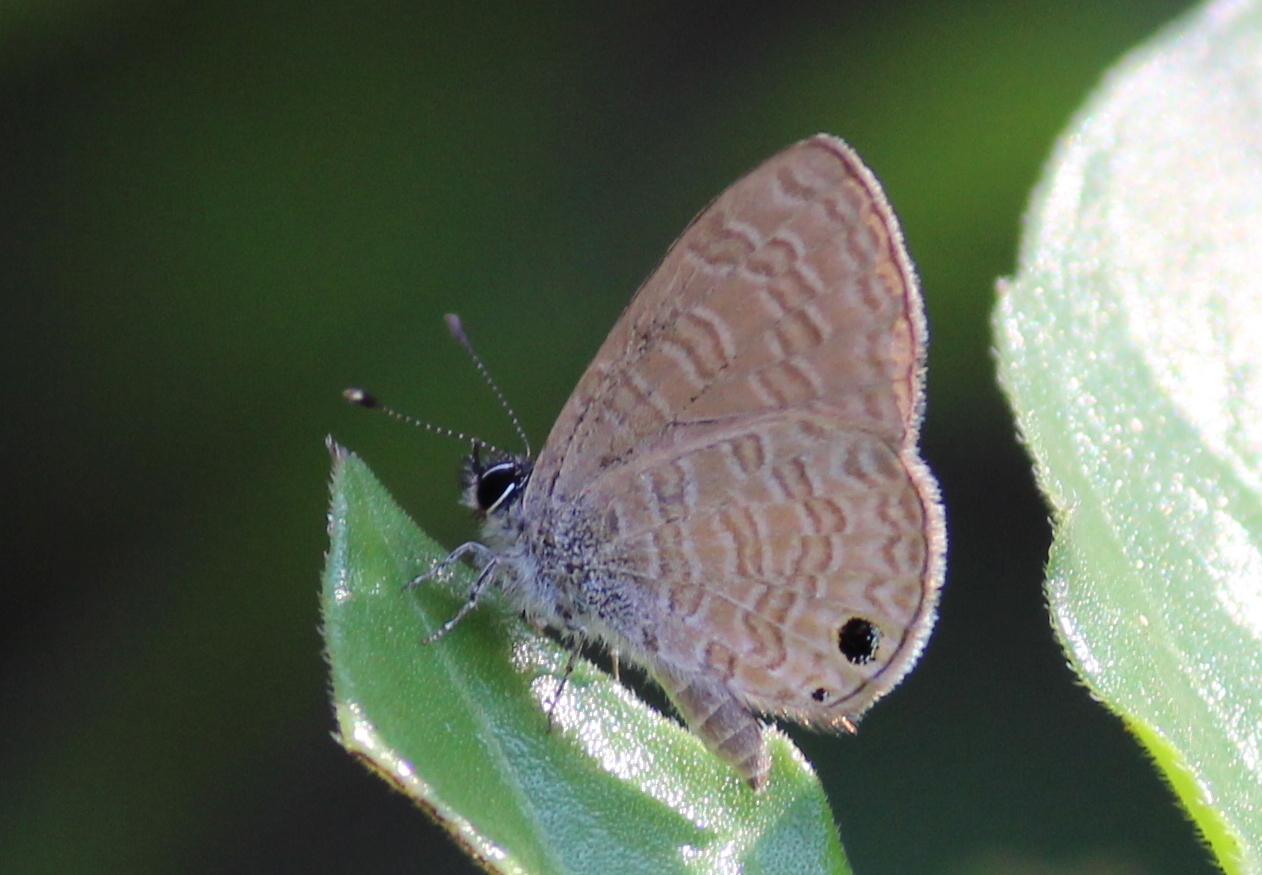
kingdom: Animalia
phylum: Arthropoda
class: Insecta
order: Lepidoptera
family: Lycaenidae
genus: Prosotas
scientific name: Prosotas dubiosa
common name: Tailless lineblue
